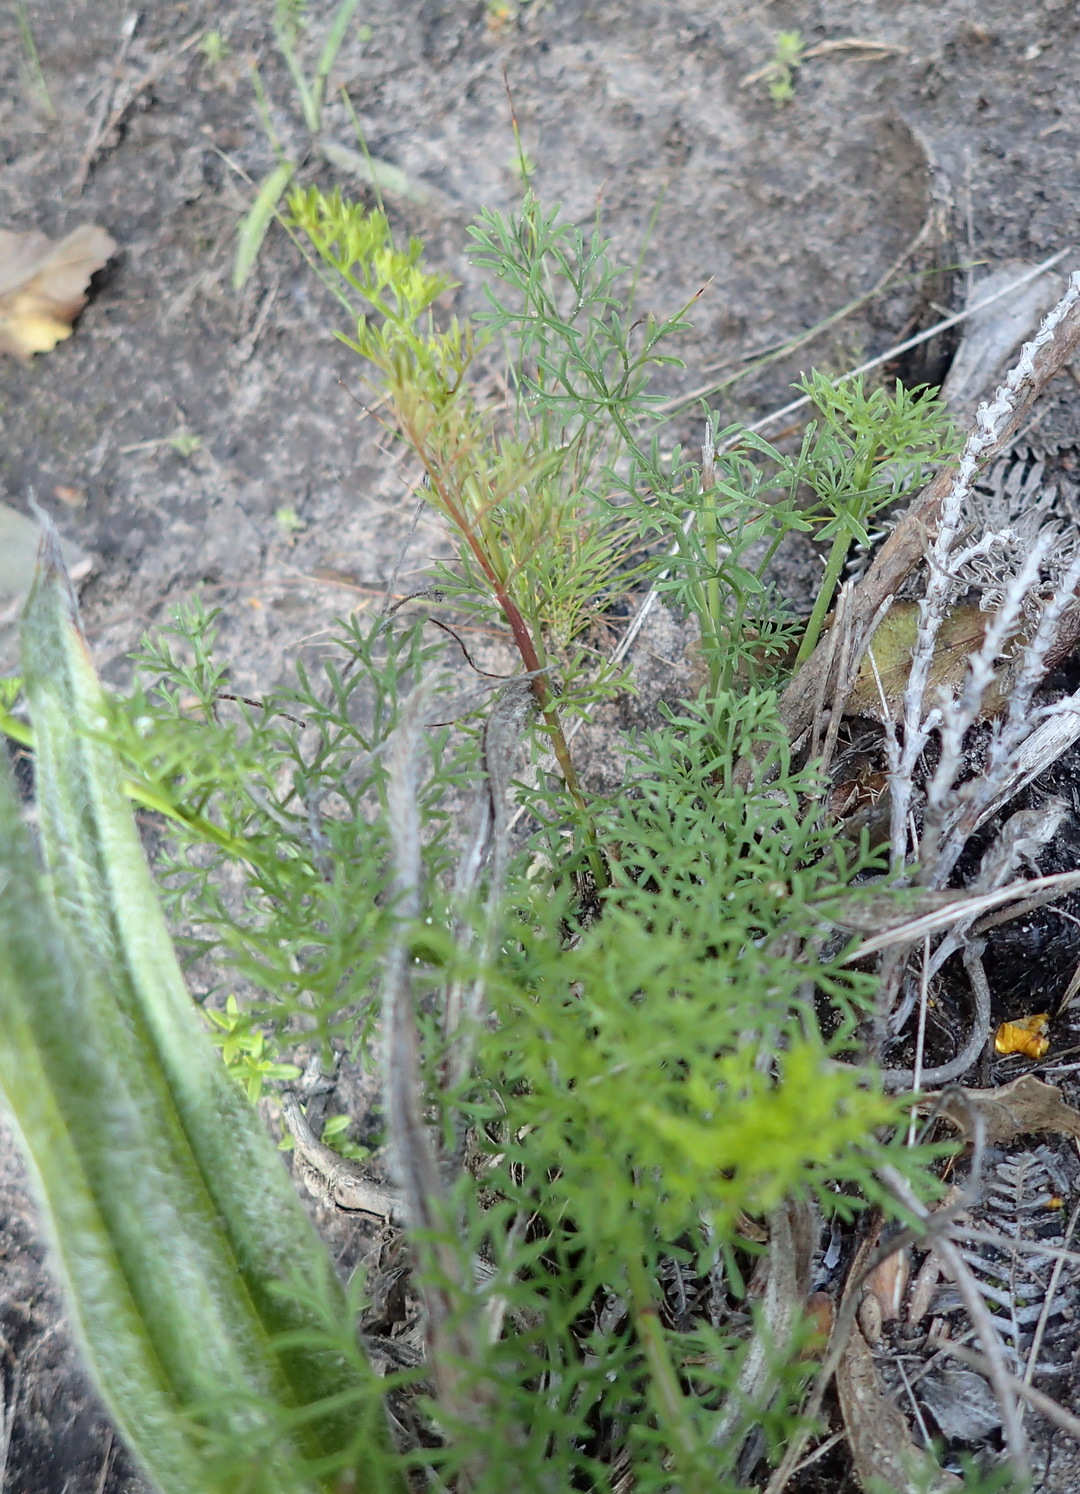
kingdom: Plantae
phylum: Tracheophyta
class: Magnoliopsida
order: Apiales
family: Apiaceae
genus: Notobubon
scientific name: Notobubon ferulaceum
